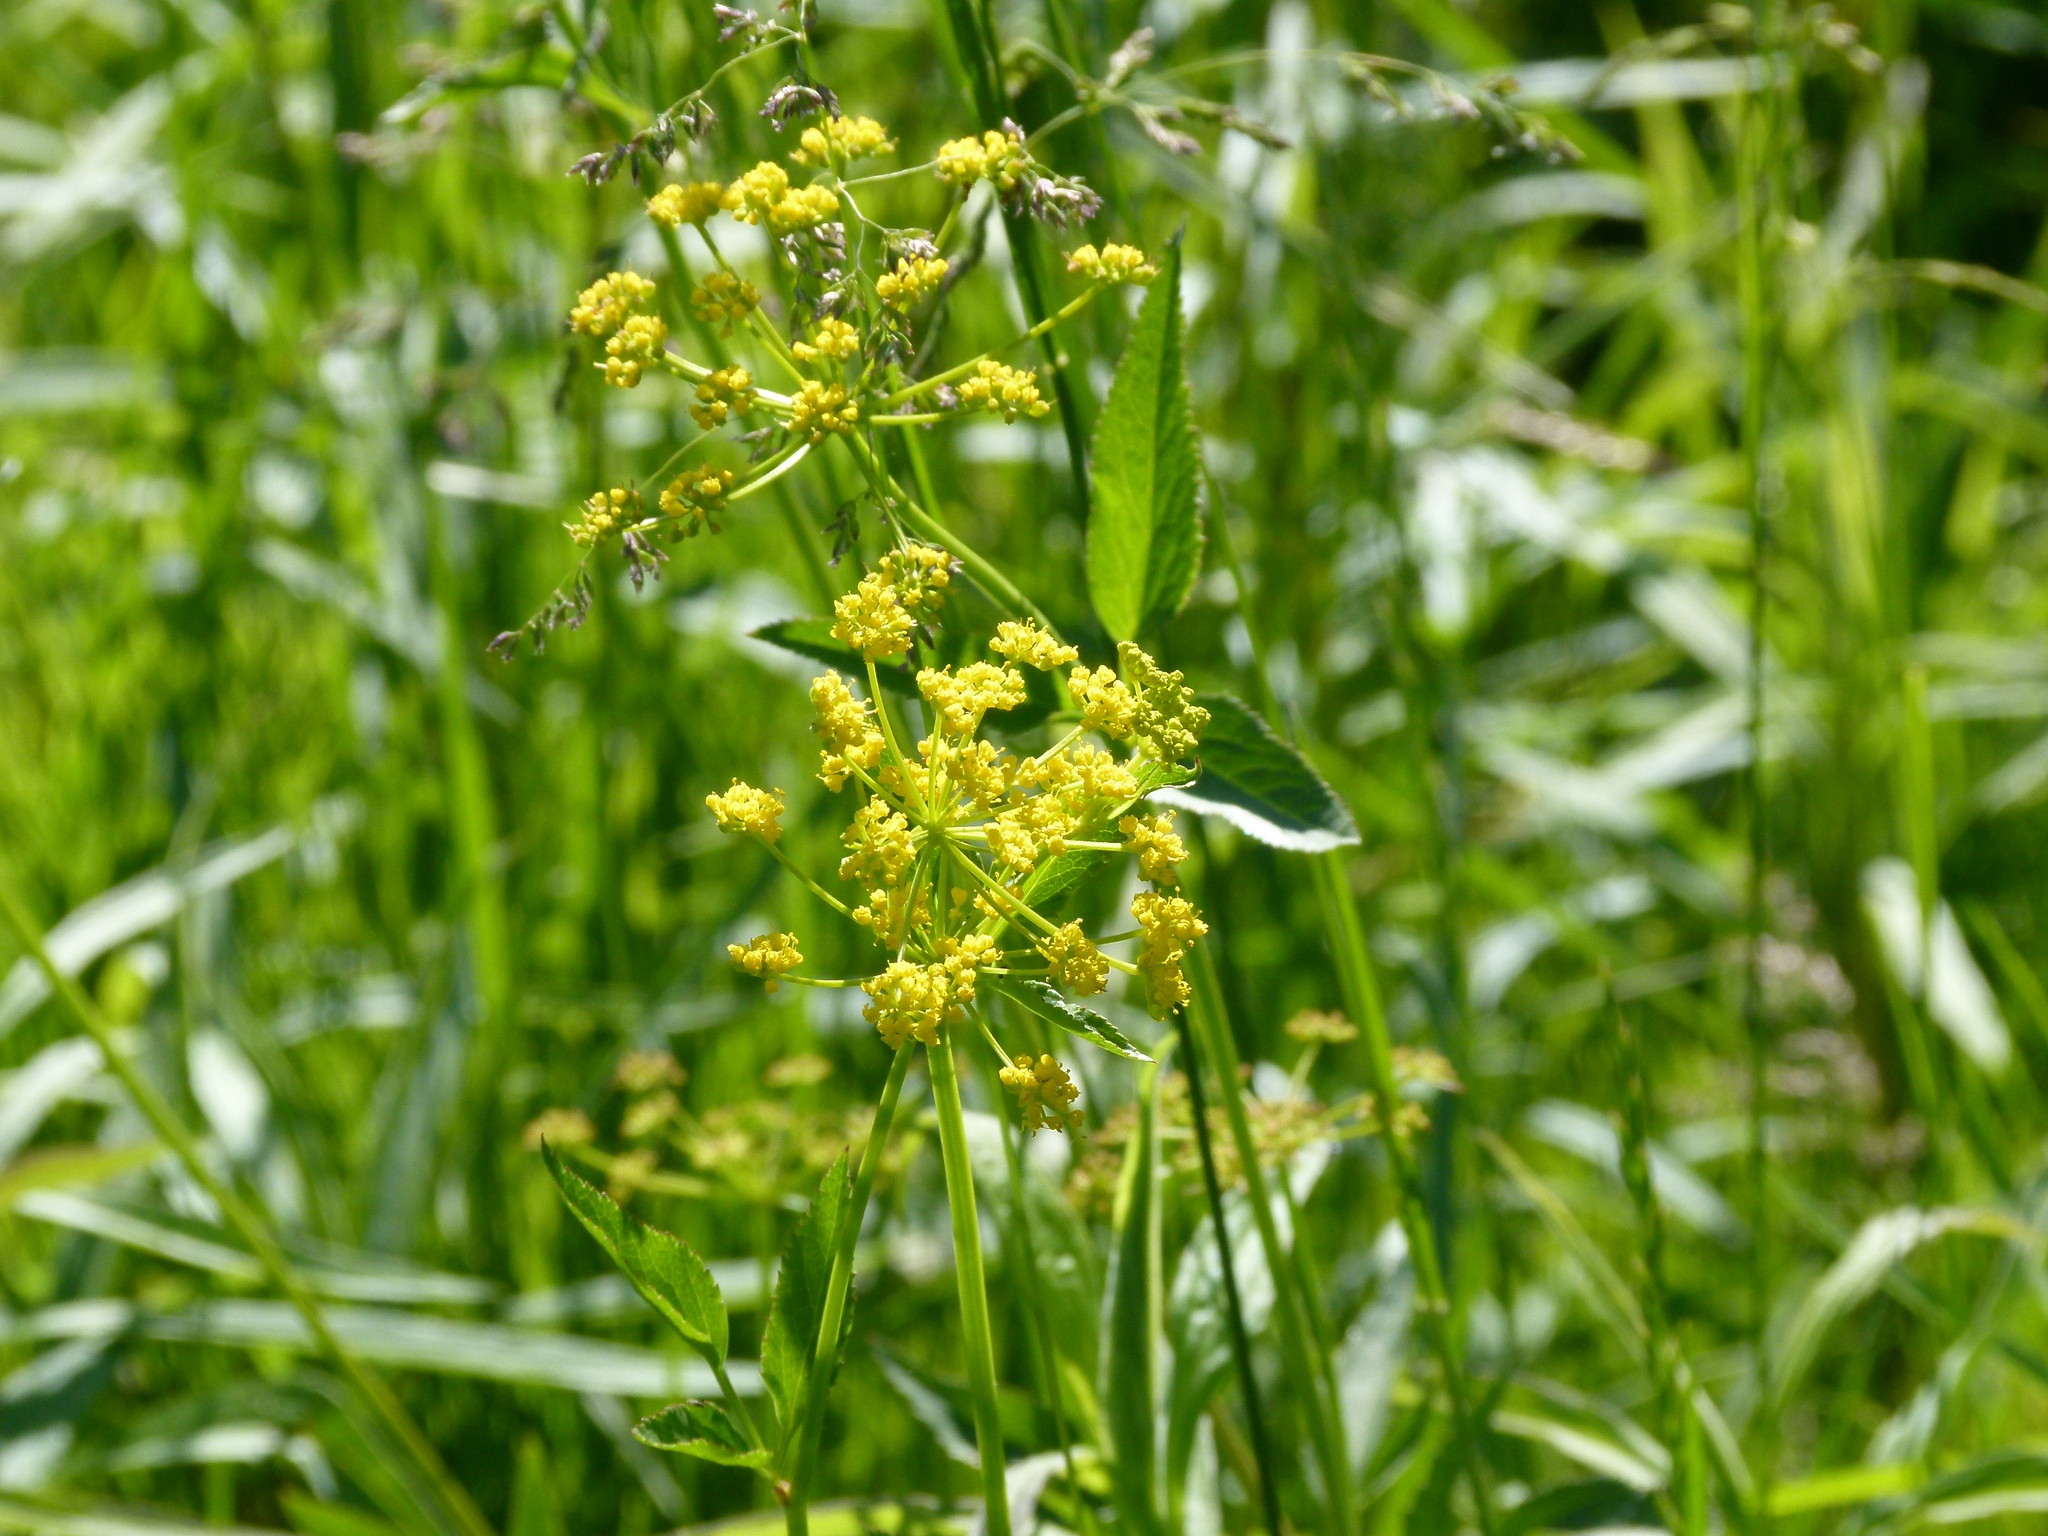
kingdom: Plantae
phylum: Tracheophyta
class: Magnoliopsida
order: Apiales
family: Apiaceae
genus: Zizia
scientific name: Zizia aurea
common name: Golden alexanders
